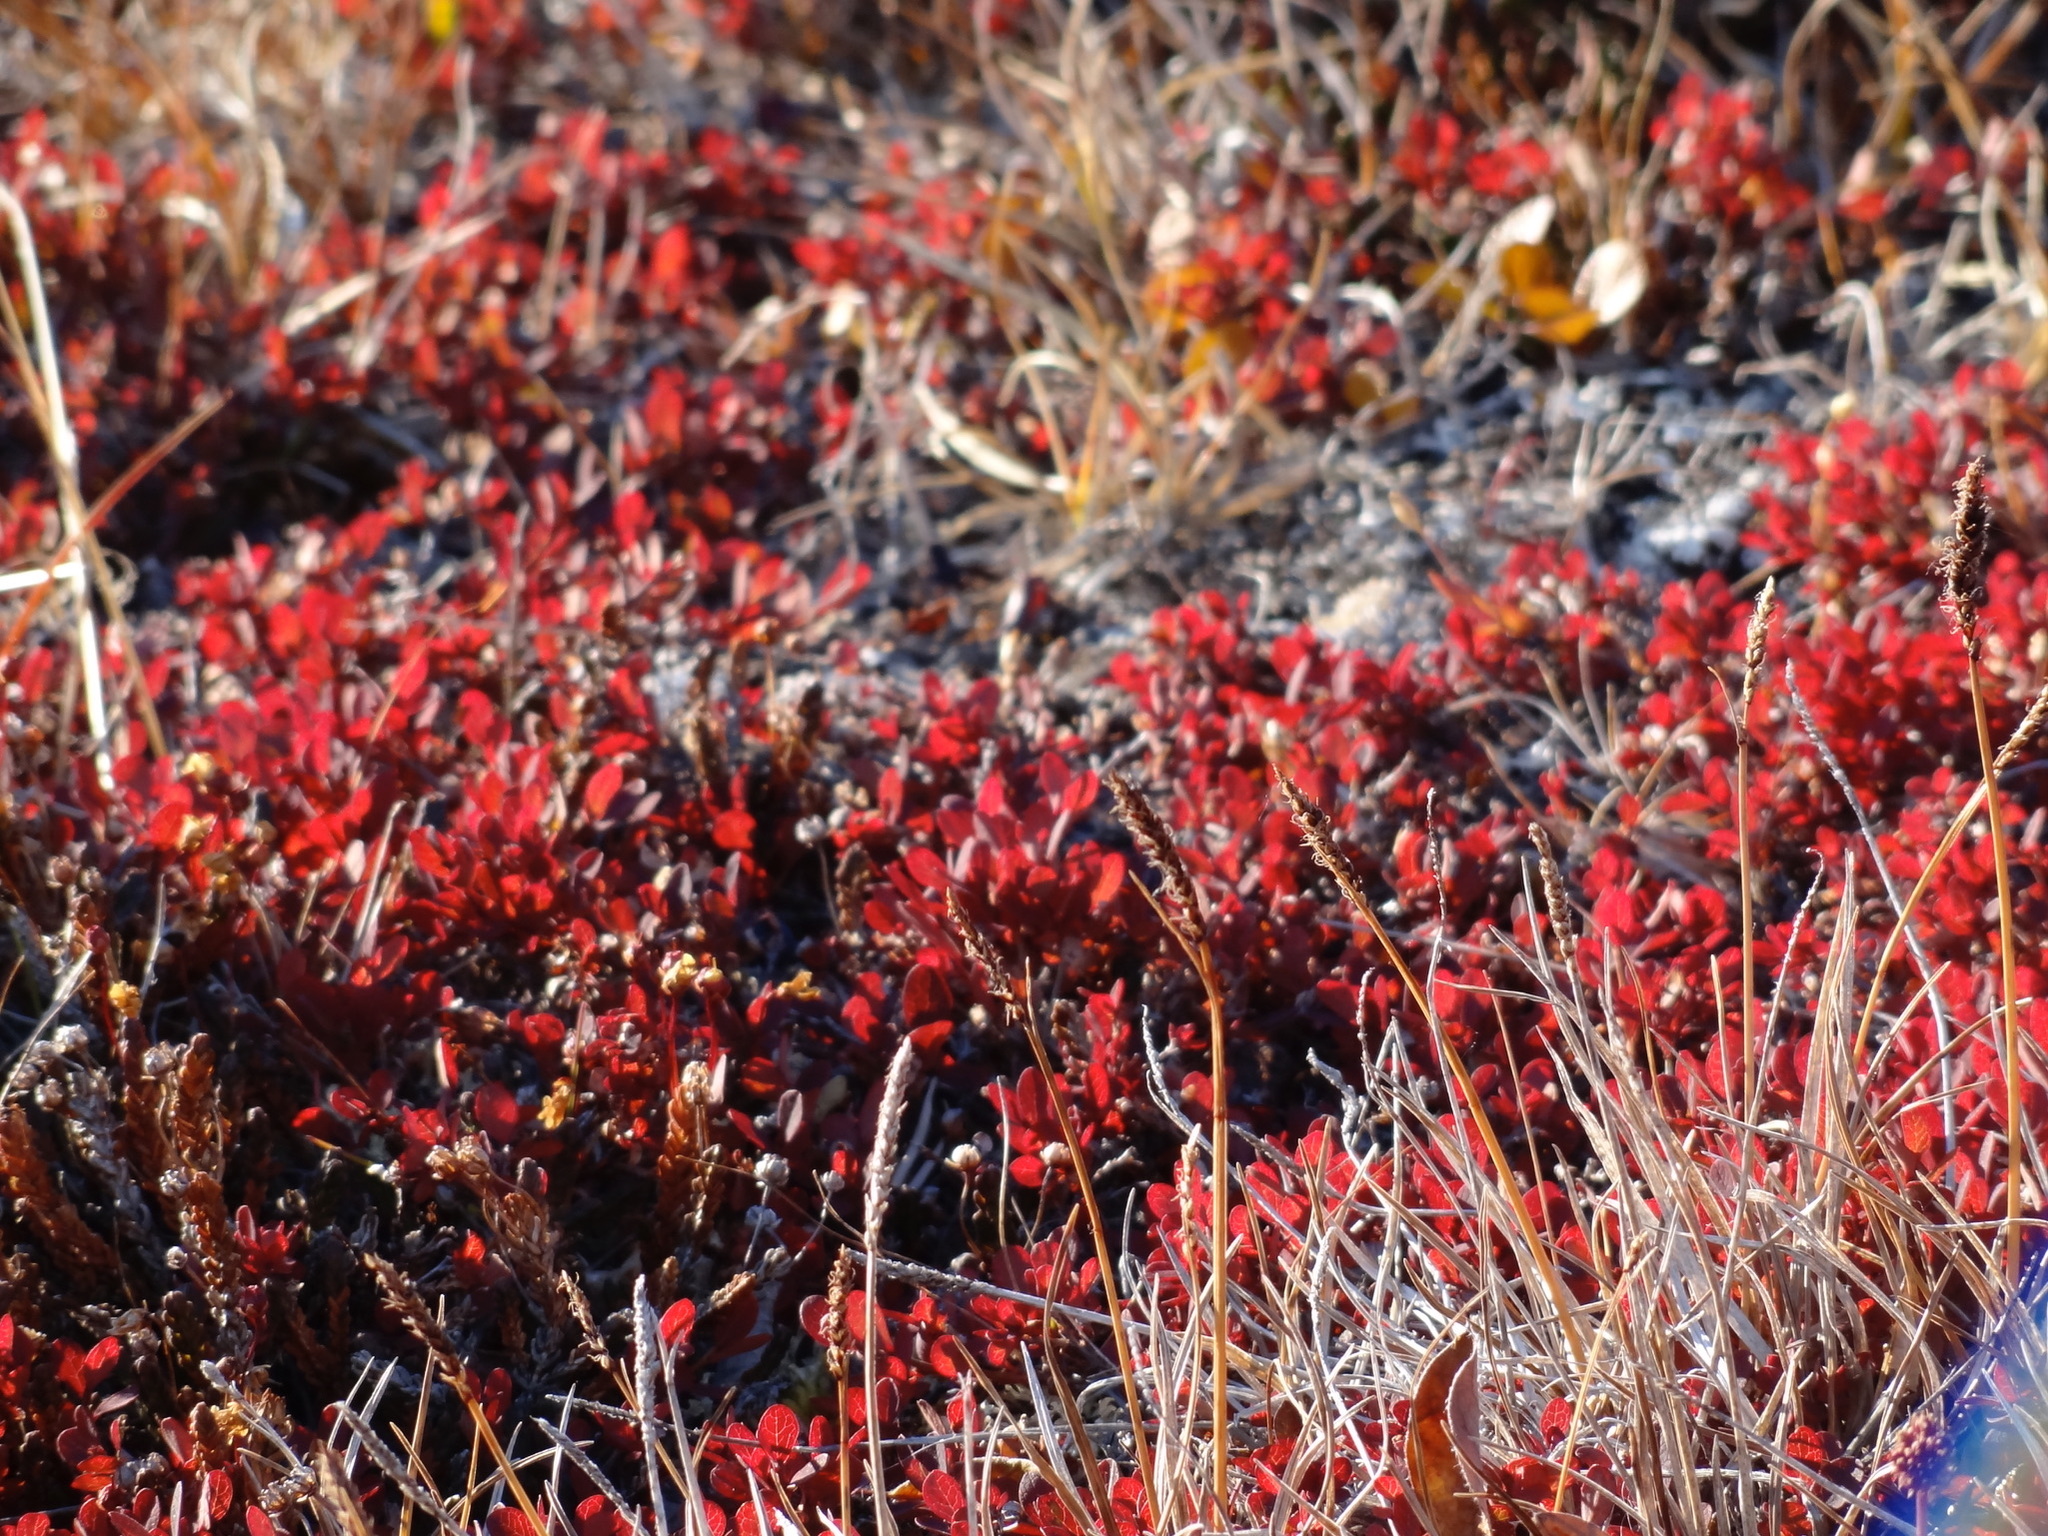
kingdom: Plantae
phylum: Tracheophyta
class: Magnoliopsida
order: Ericales
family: Ericaceae
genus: Vaccinium
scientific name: Vaccinium uliginosum
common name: Bog bilberry
